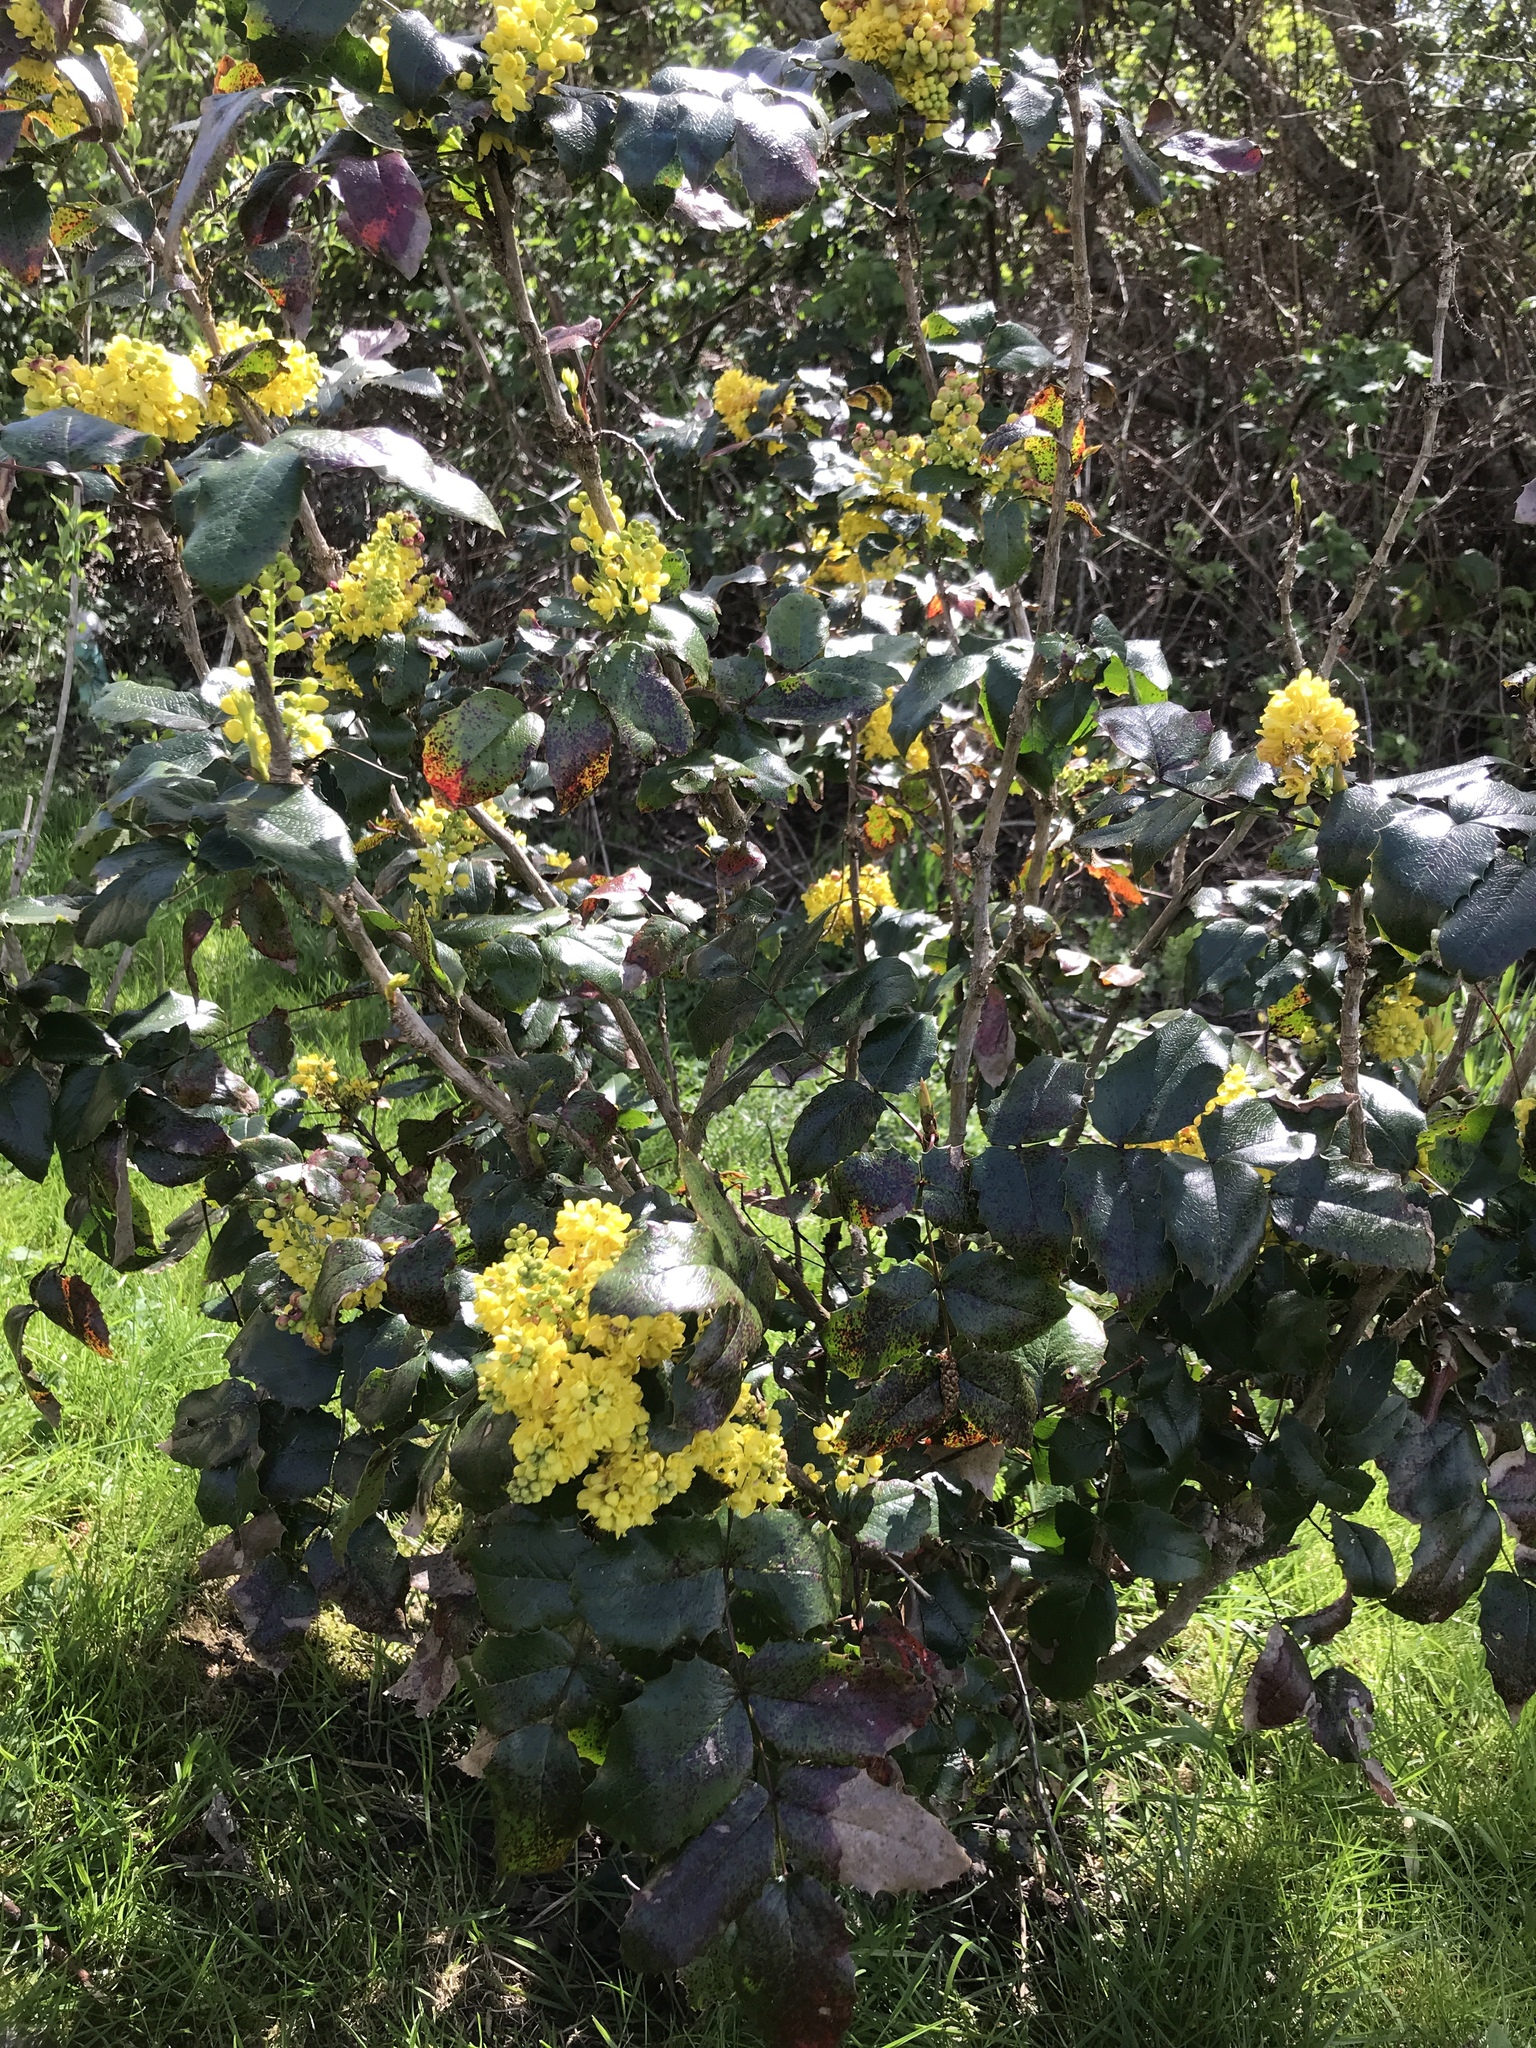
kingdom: Plantae
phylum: Tracheophyta
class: Magnoliopsida
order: Ranunculales
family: Berberidaceae
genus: Mahonia
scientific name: Mahonia aquifolium
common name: Oregon-grape
